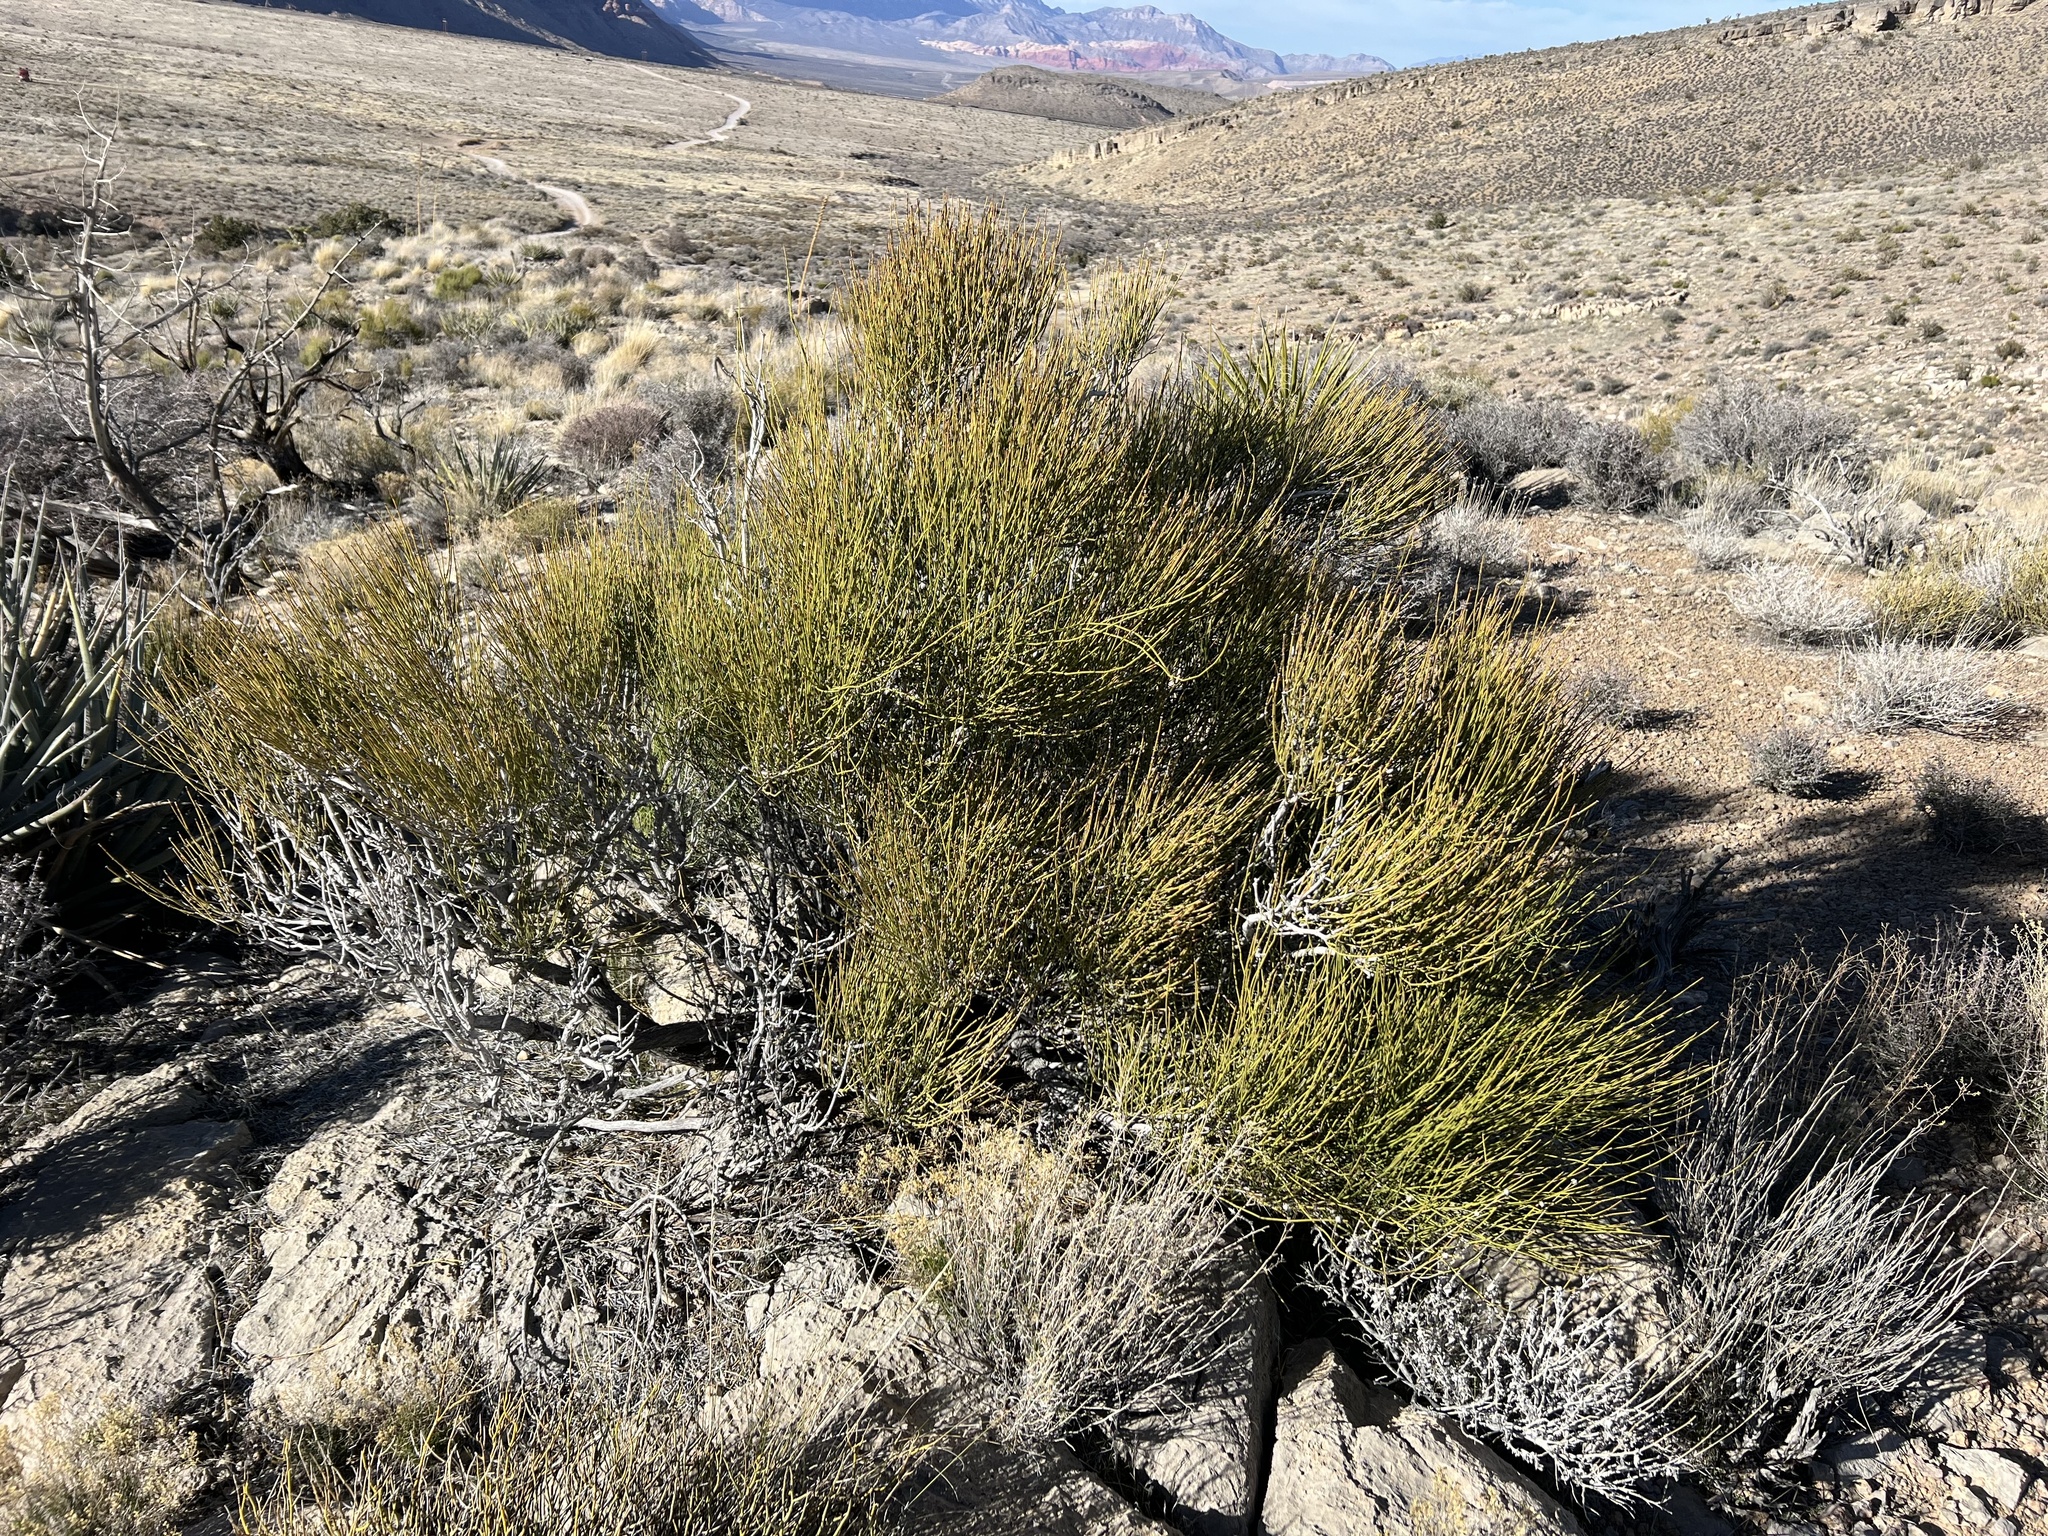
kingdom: Plantae
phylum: Tracheophyta
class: Gnetopsida
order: Ephedrales
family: Ephedraceae
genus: Ephedra
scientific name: Ephedra viridis
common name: Green ephedra
